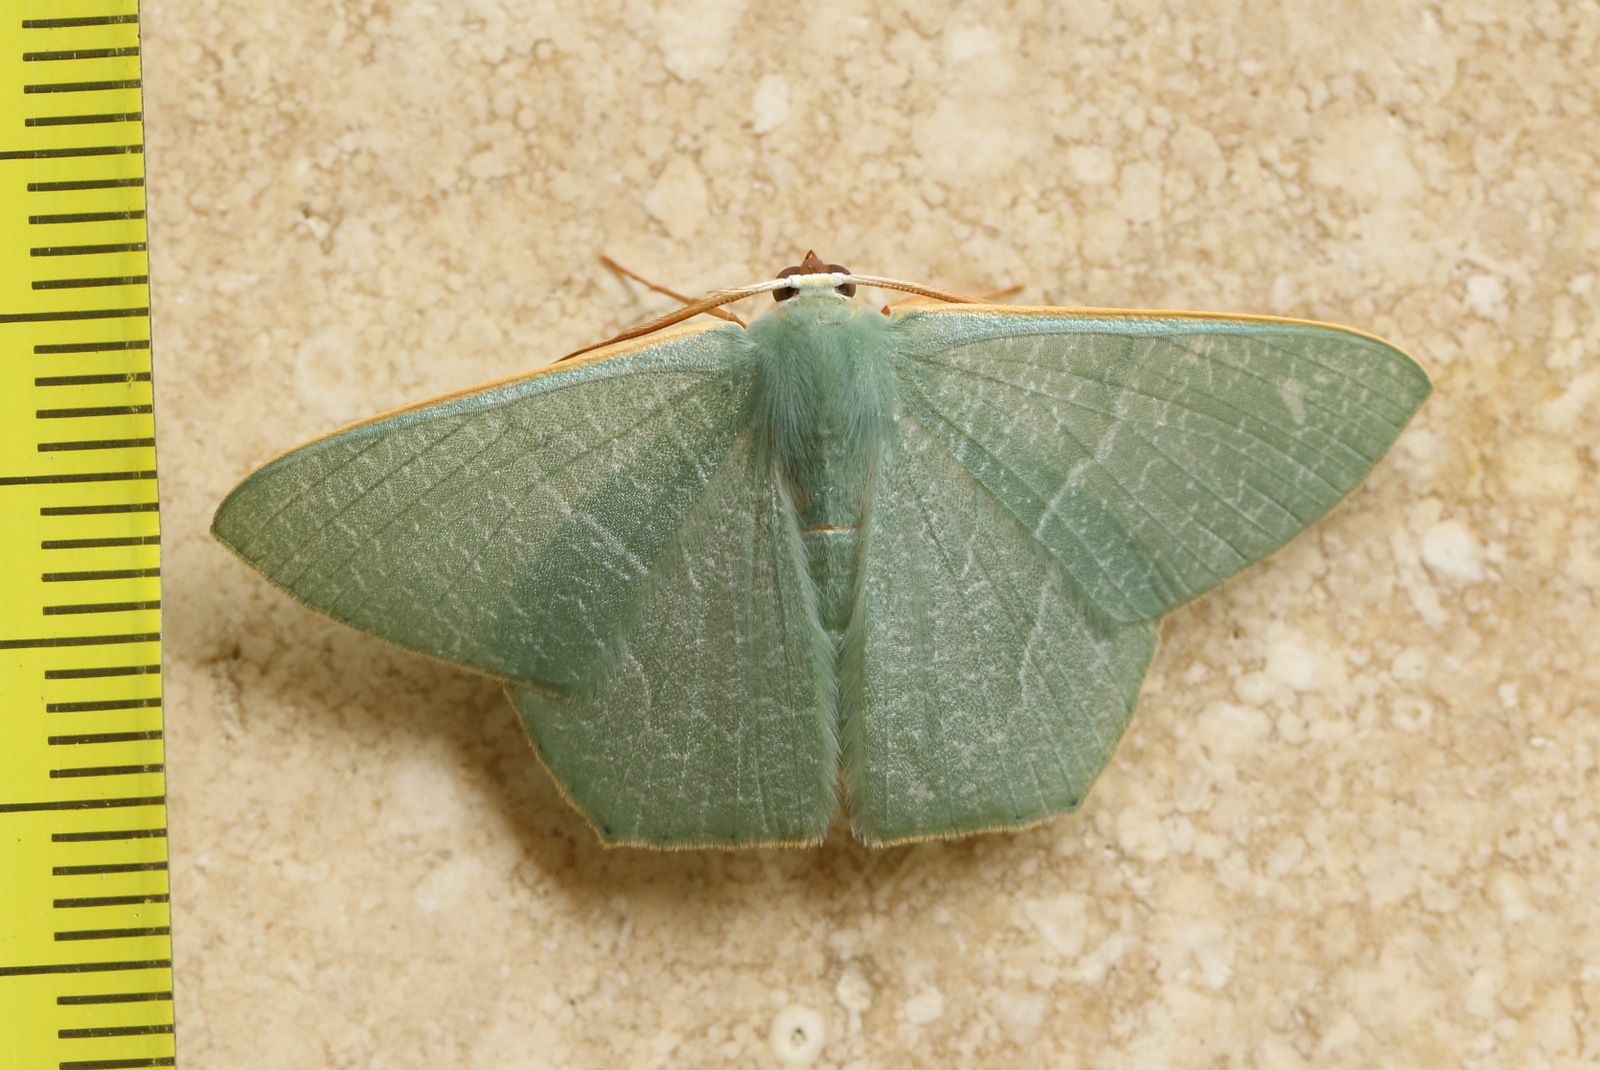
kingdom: Animalia
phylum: Arthropoda
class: Insecta
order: Lepidoptera
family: Geometridae
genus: Thalassodes
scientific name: Thalassodes pilaria
